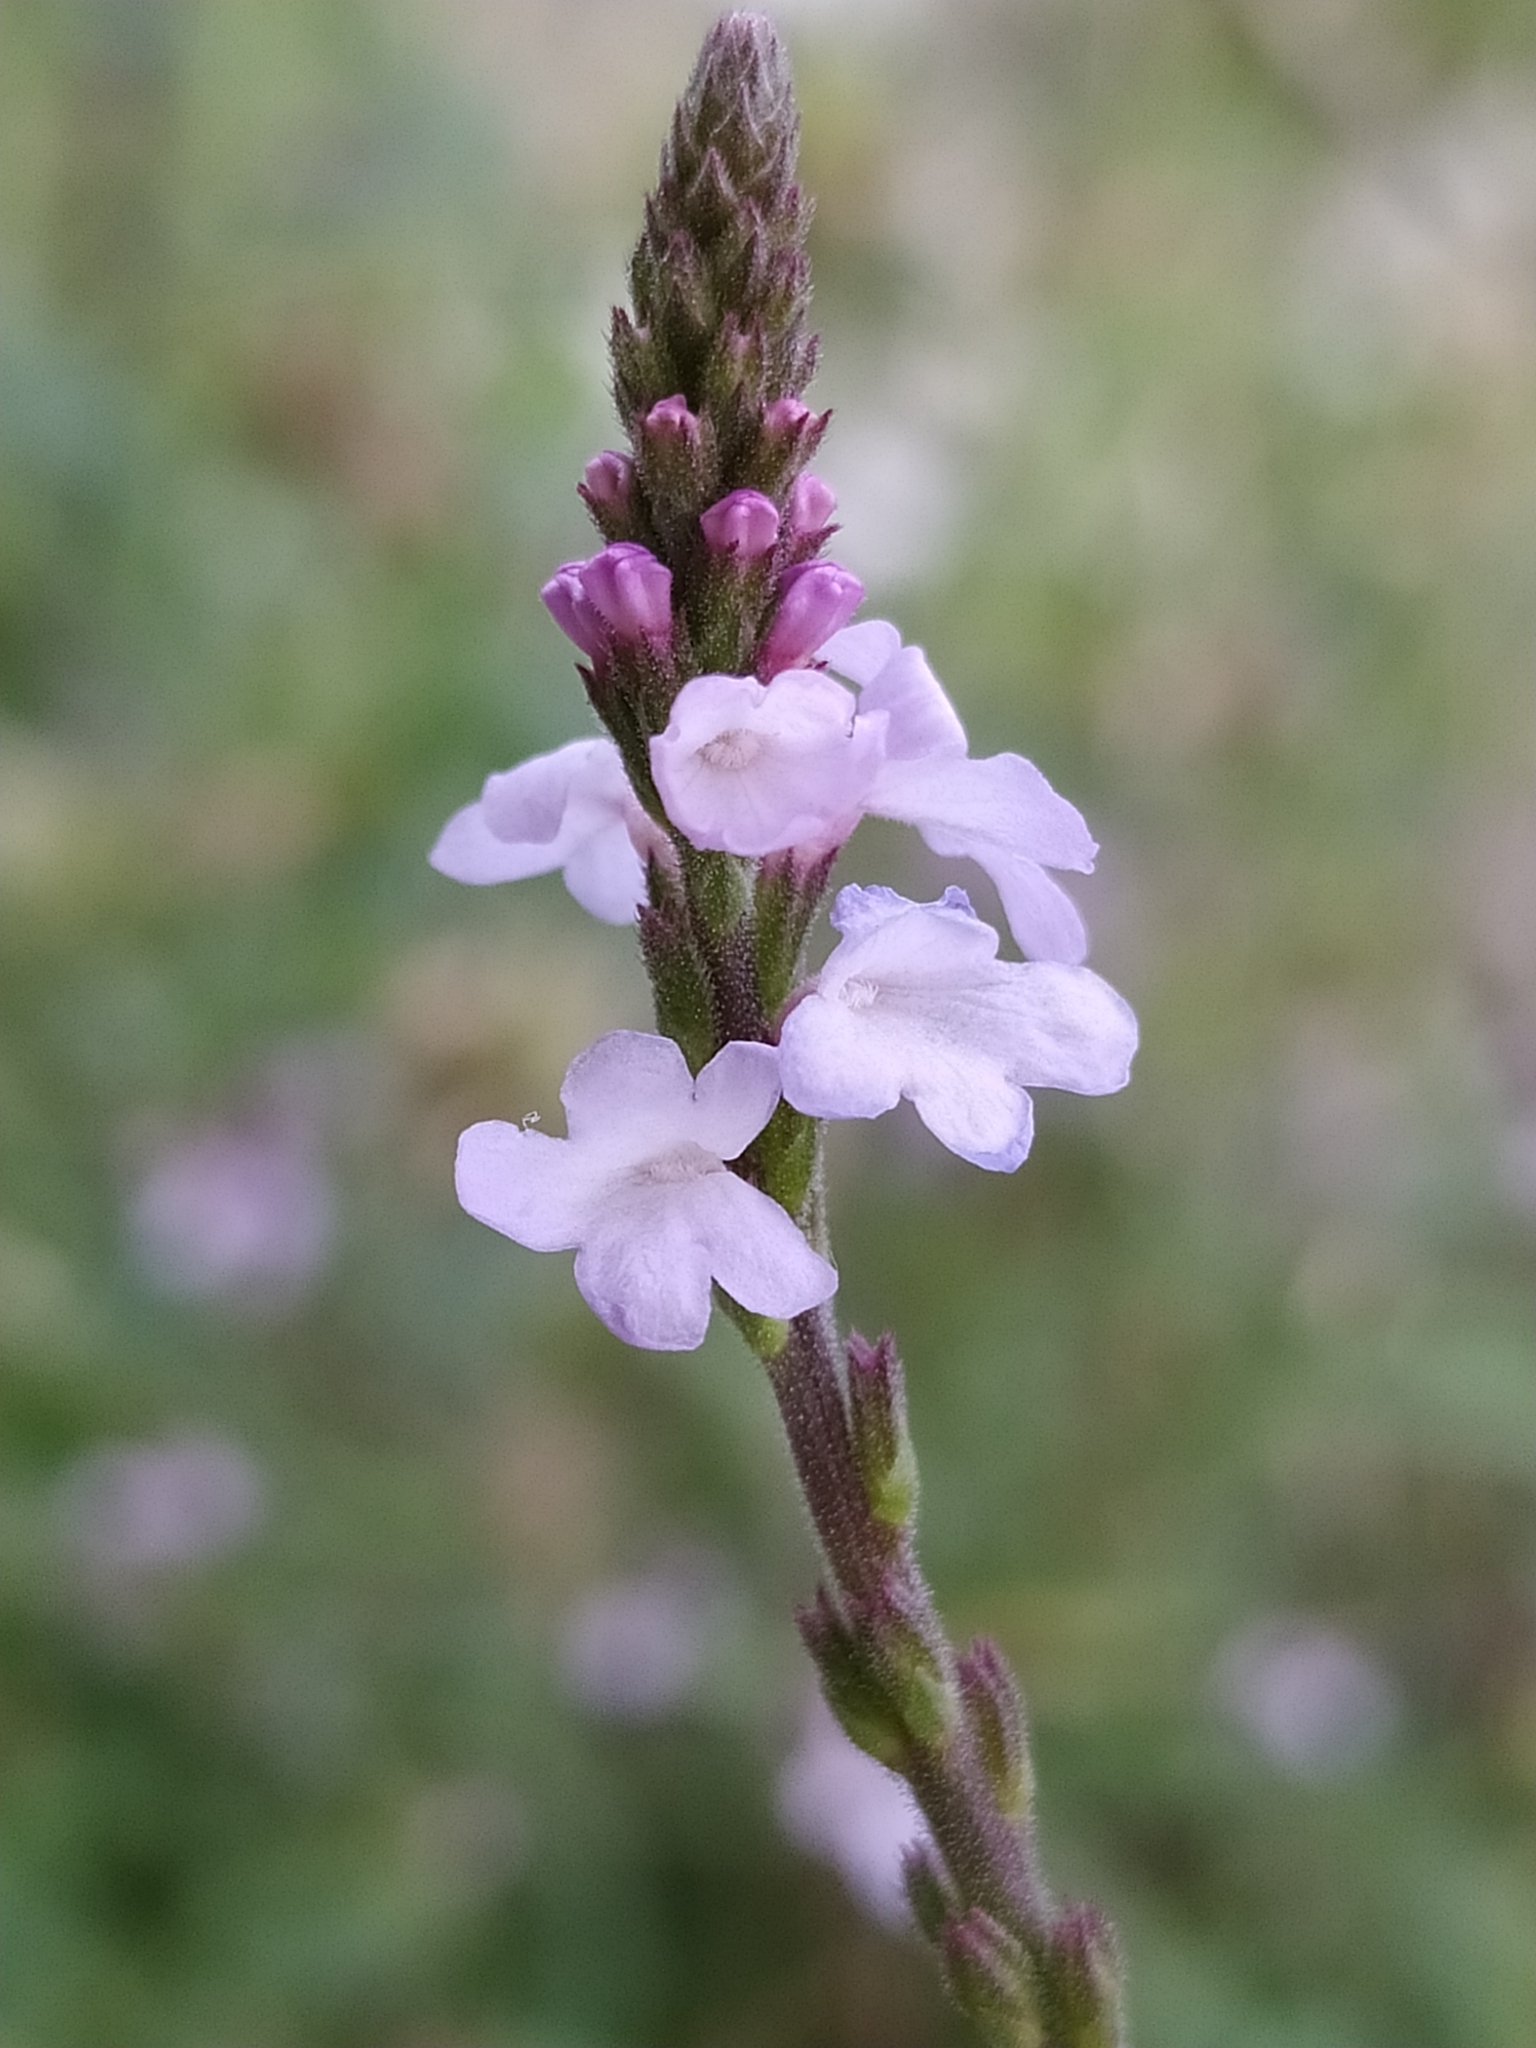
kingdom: Plantae
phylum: Tracheophyta
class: Magnoliopsida
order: Lamiales
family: Verbenaceae
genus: Verbena
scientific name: Verbena officinalis
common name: Vervain
